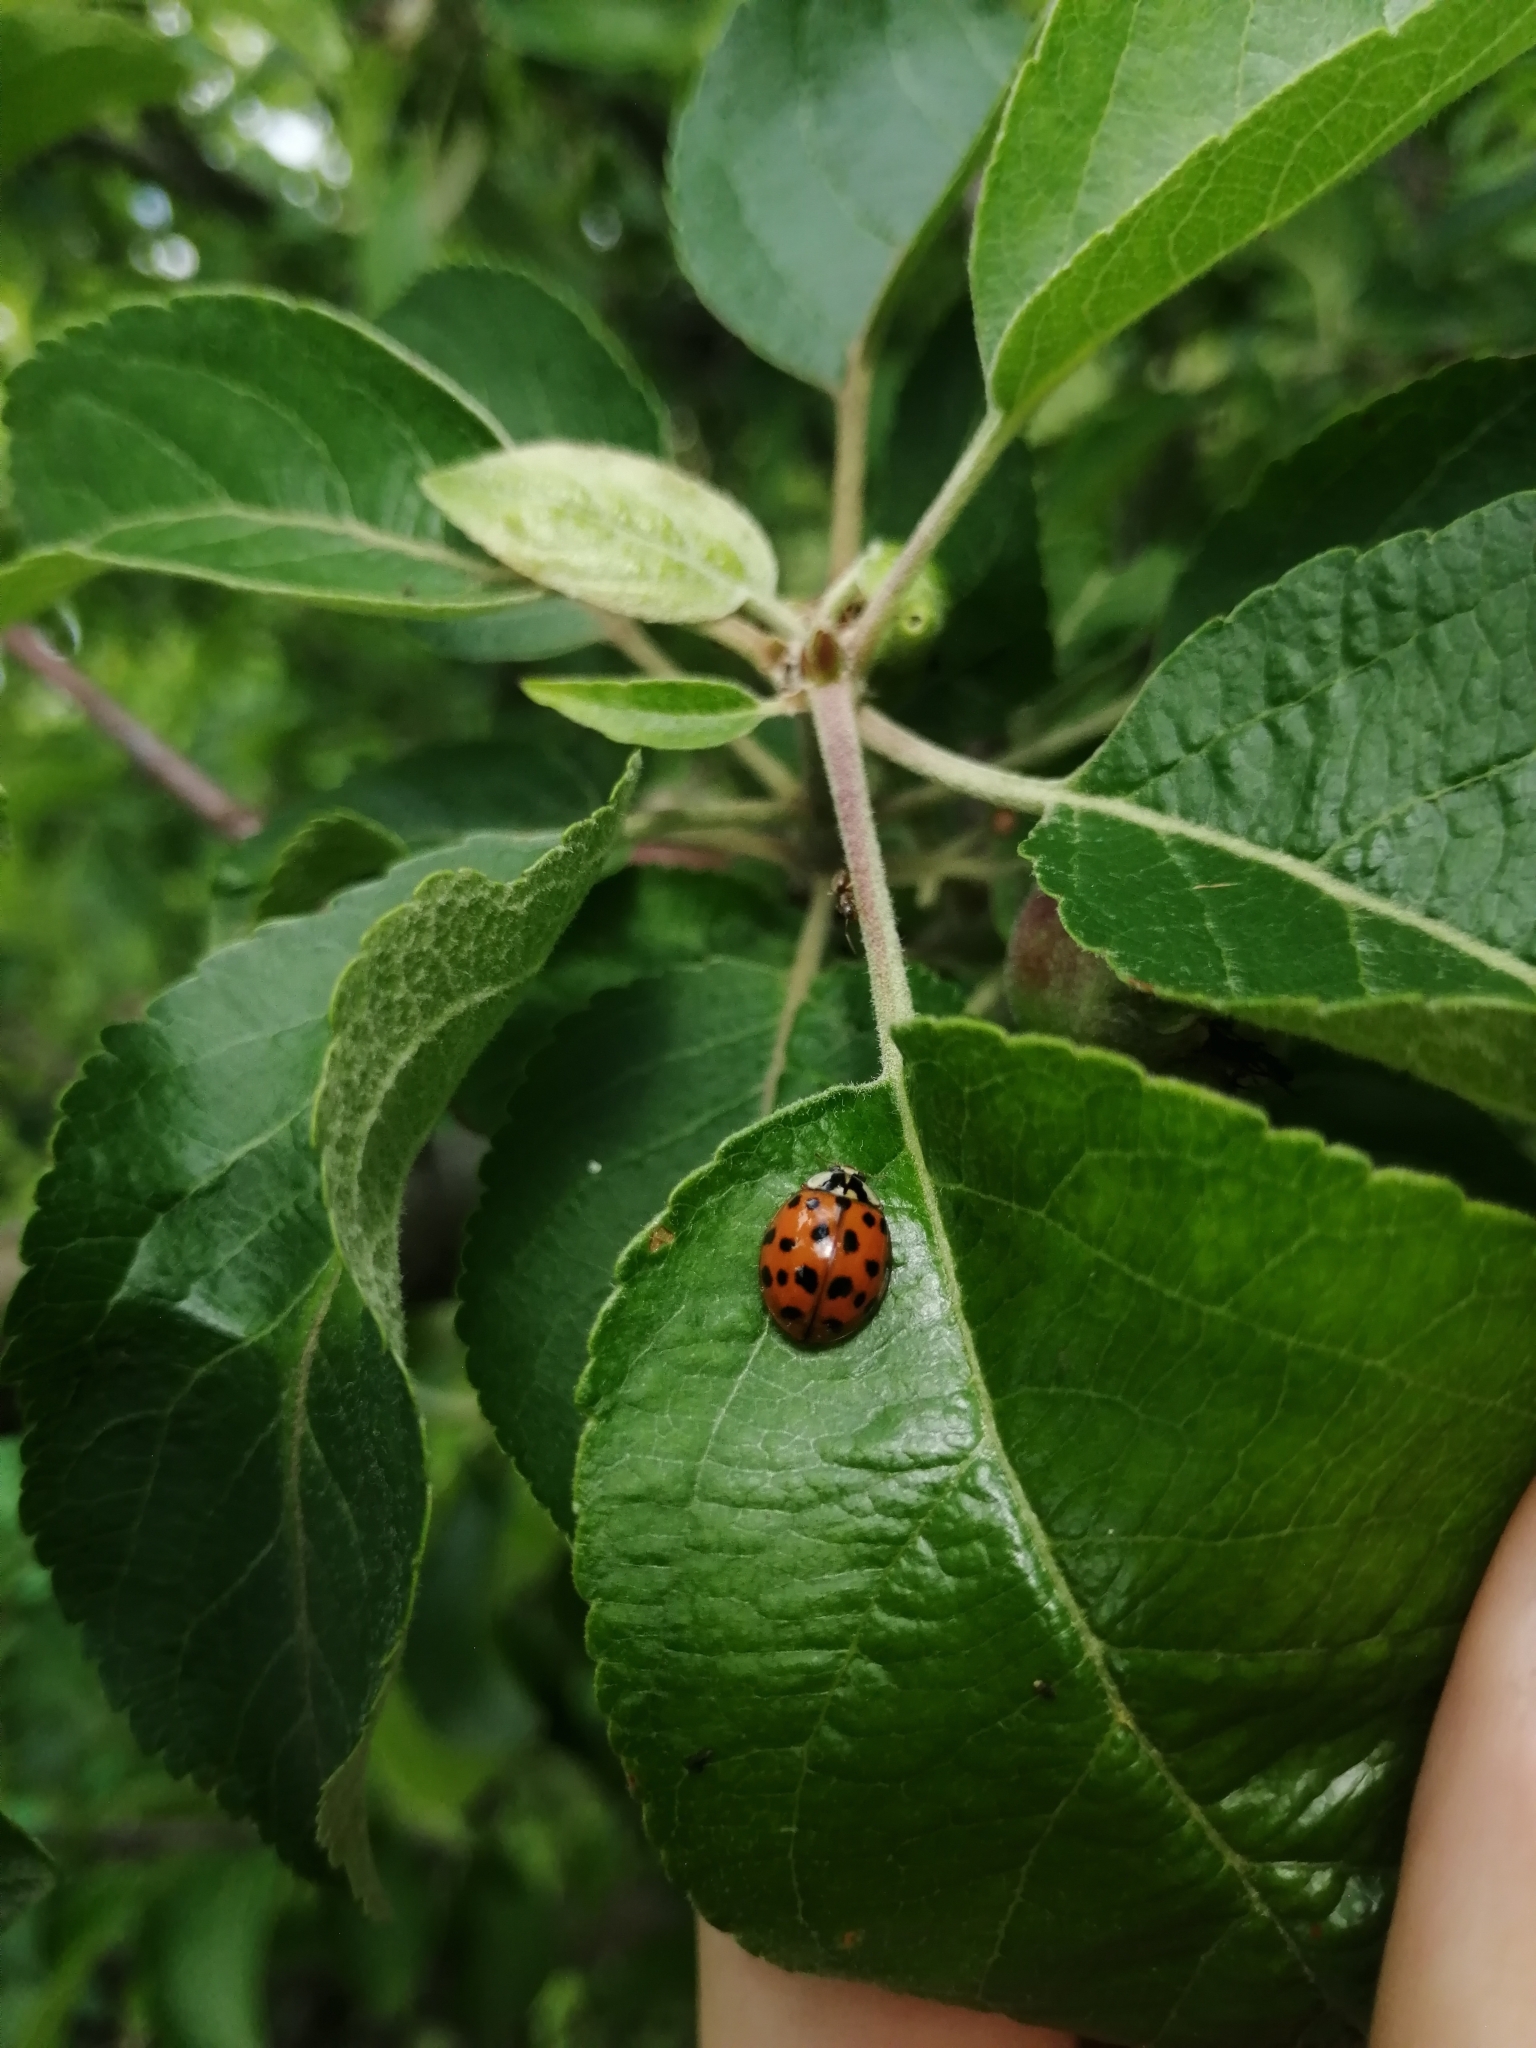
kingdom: Animalia
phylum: Arthropoda
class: Insecta
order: Coleoptera
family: Coccinellidae
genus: Harmonia
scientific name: Harmonia axyridis
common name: Harlequin ladybird
